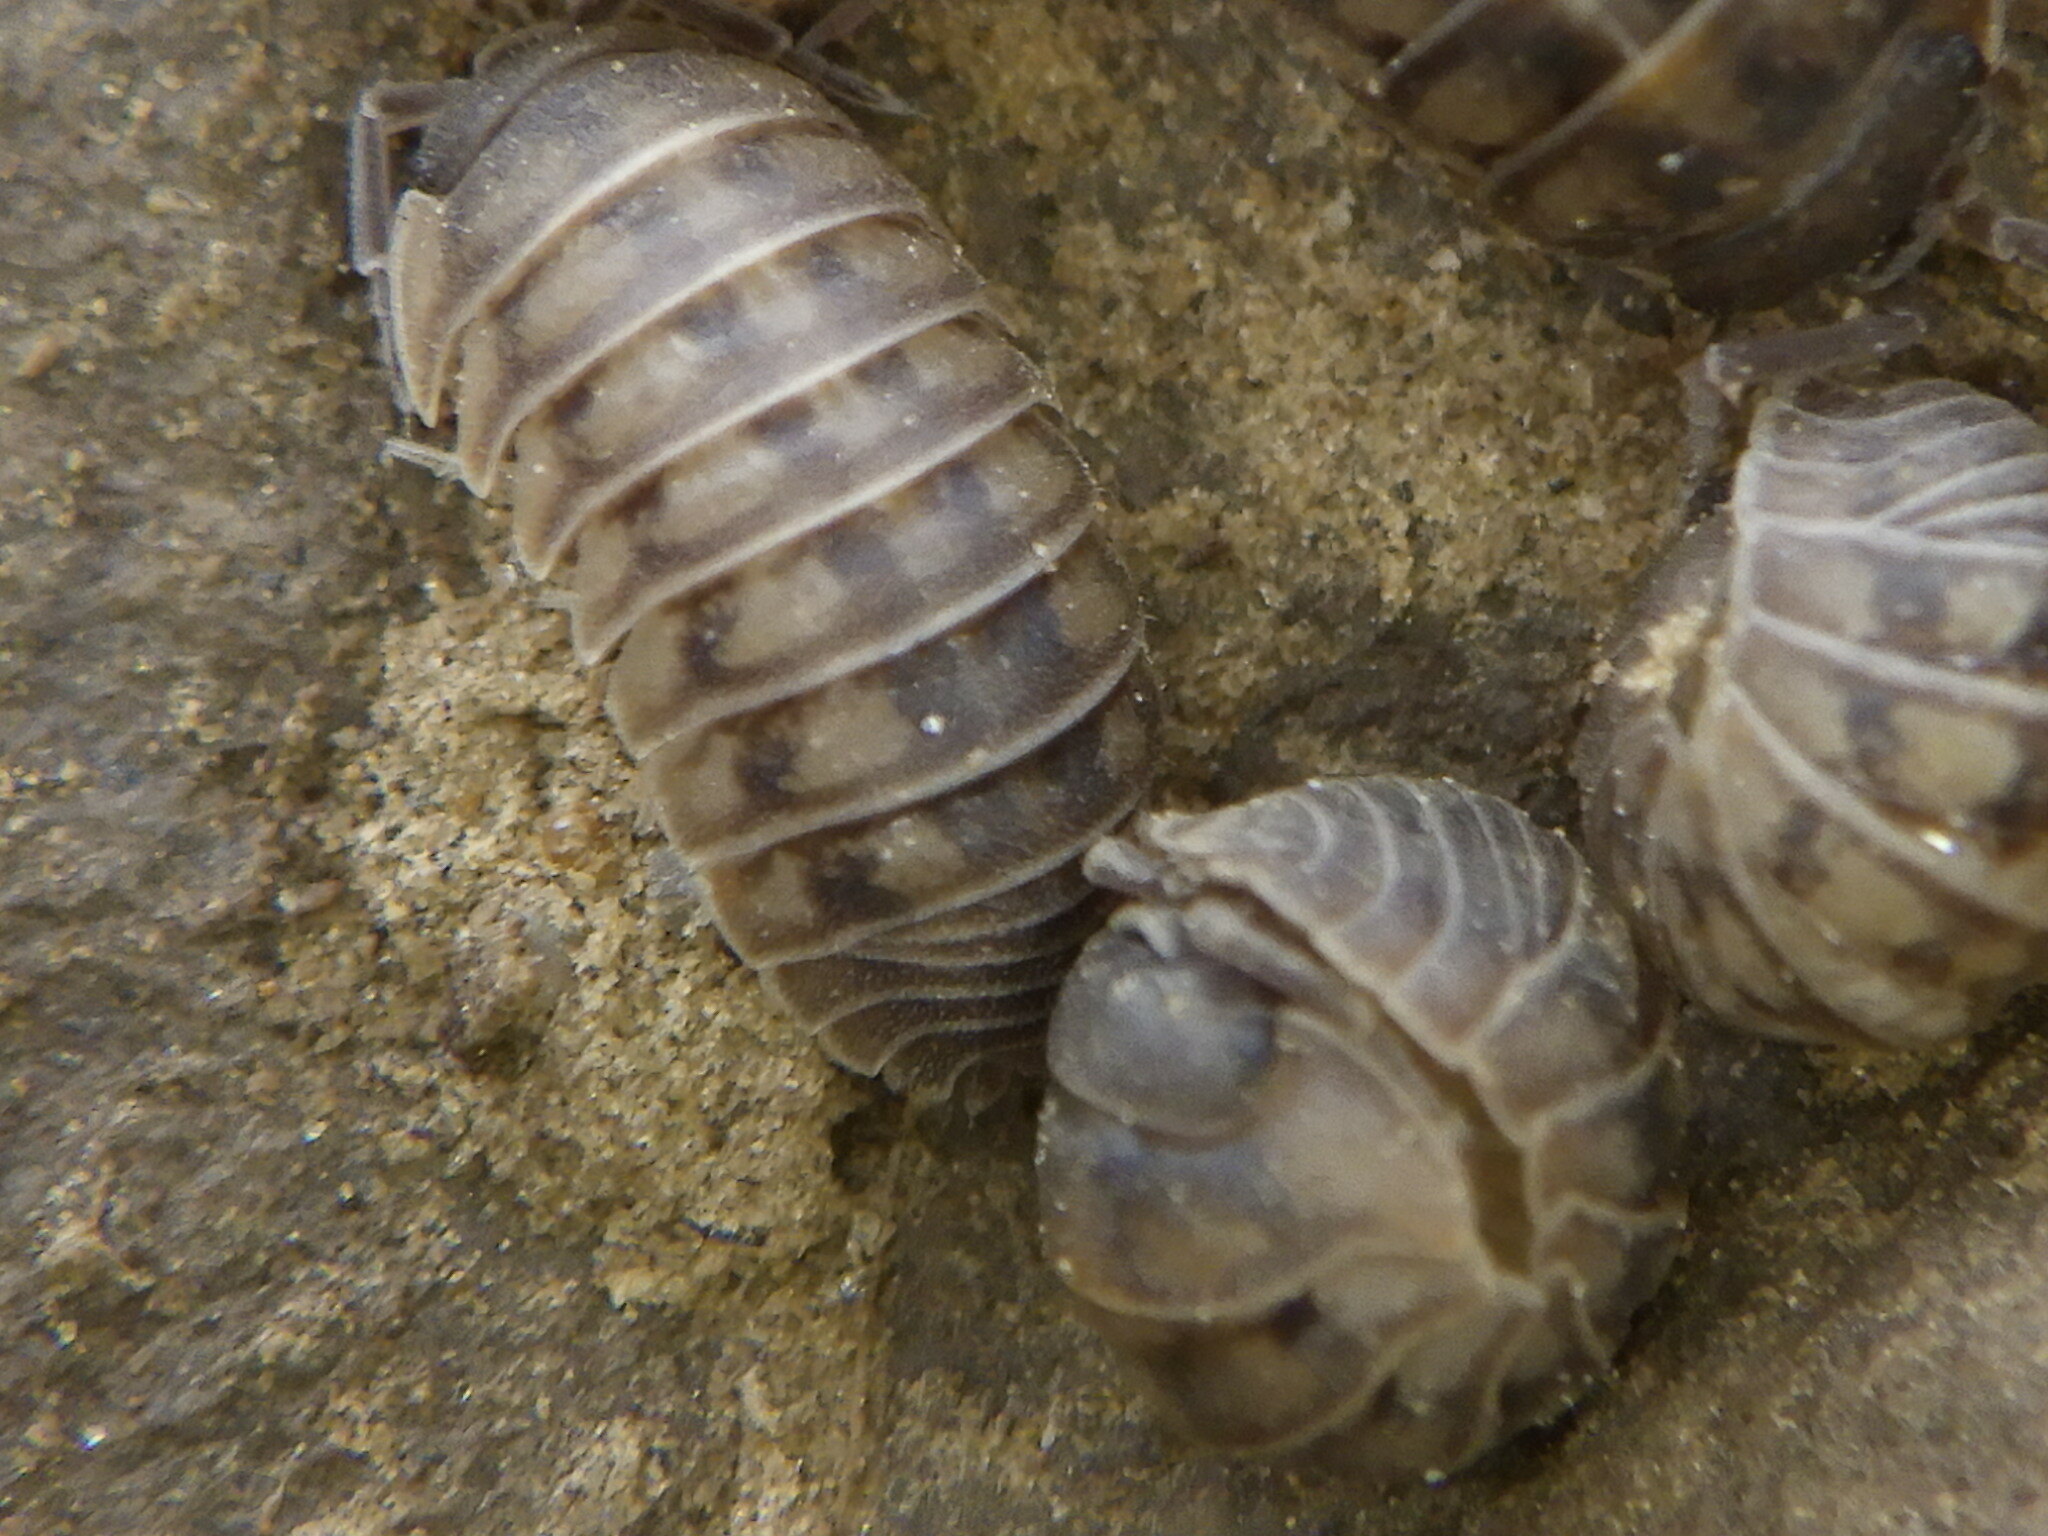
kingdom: Animalia
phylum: Arthropoda
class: Malacostraca
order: Isopoda
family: Armadillidiidae
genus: Armadillidium
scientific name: Armadillidium nasatum
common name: Isopod
